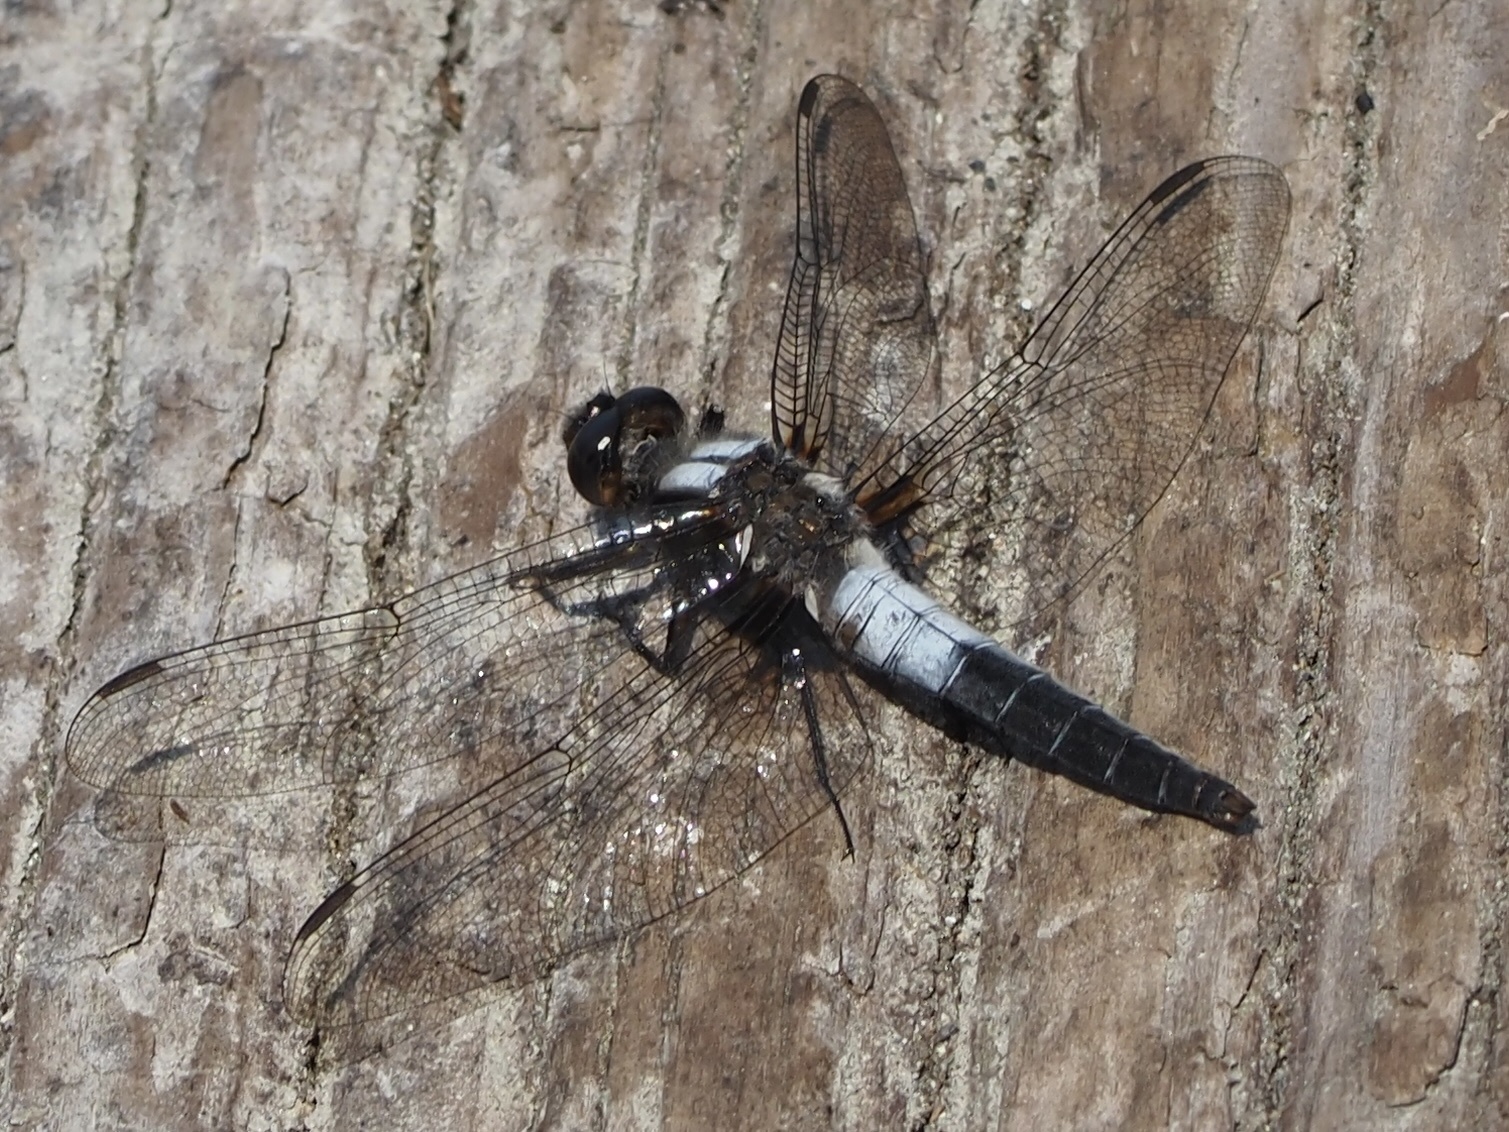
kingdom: Animalia
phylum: Arthropoda
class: Insecta
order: Odonata
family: Libellulidae
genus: Ladona
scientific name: Ladona julia
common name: Chalk-fronted corporal
